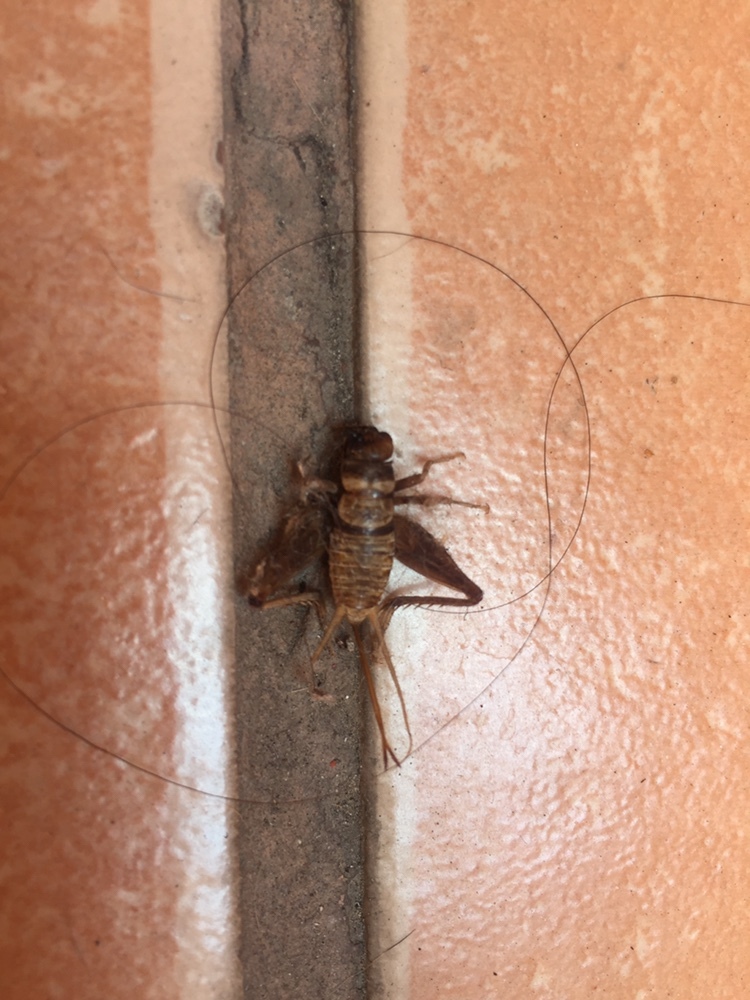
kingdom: Animalia
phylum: Arthropoda
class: Insecta
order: Orthoptera
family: Gryllidae
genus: Gryllodes
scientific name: Gryllodes sigillatus
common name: Tropical house cricket
